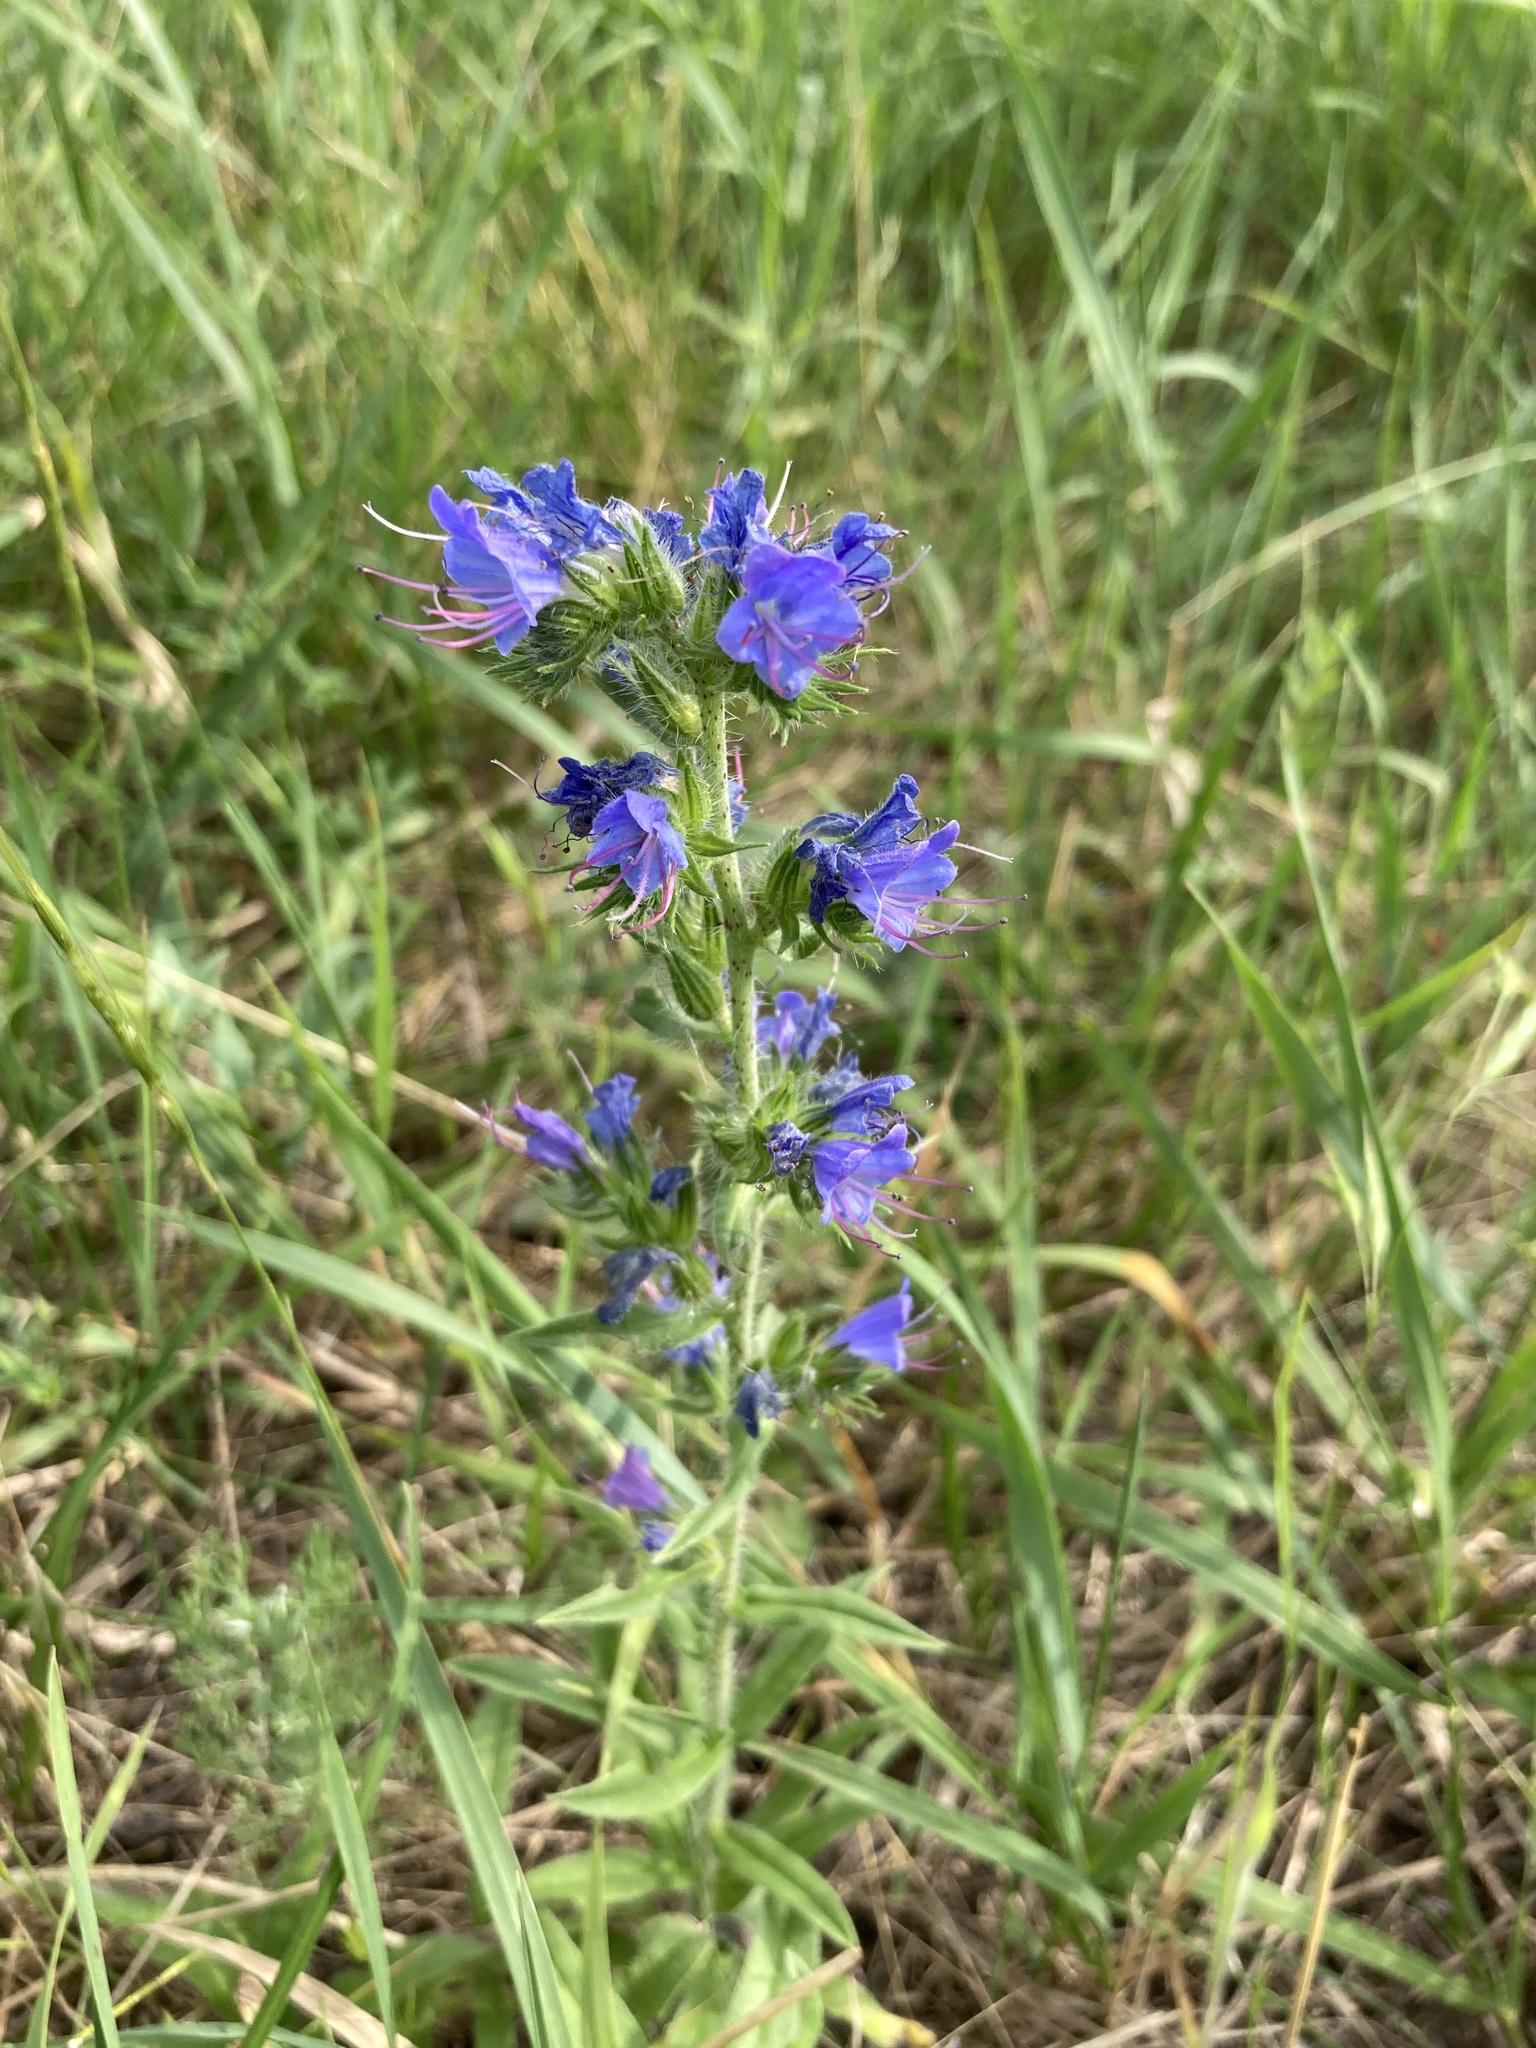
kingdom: Plantae
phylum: Tracheophyta
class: Magnoliopsida
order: Boraginales
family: Boraginaceae
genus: Echium
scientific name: Echium vulgare
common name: Common viper's bugloss
